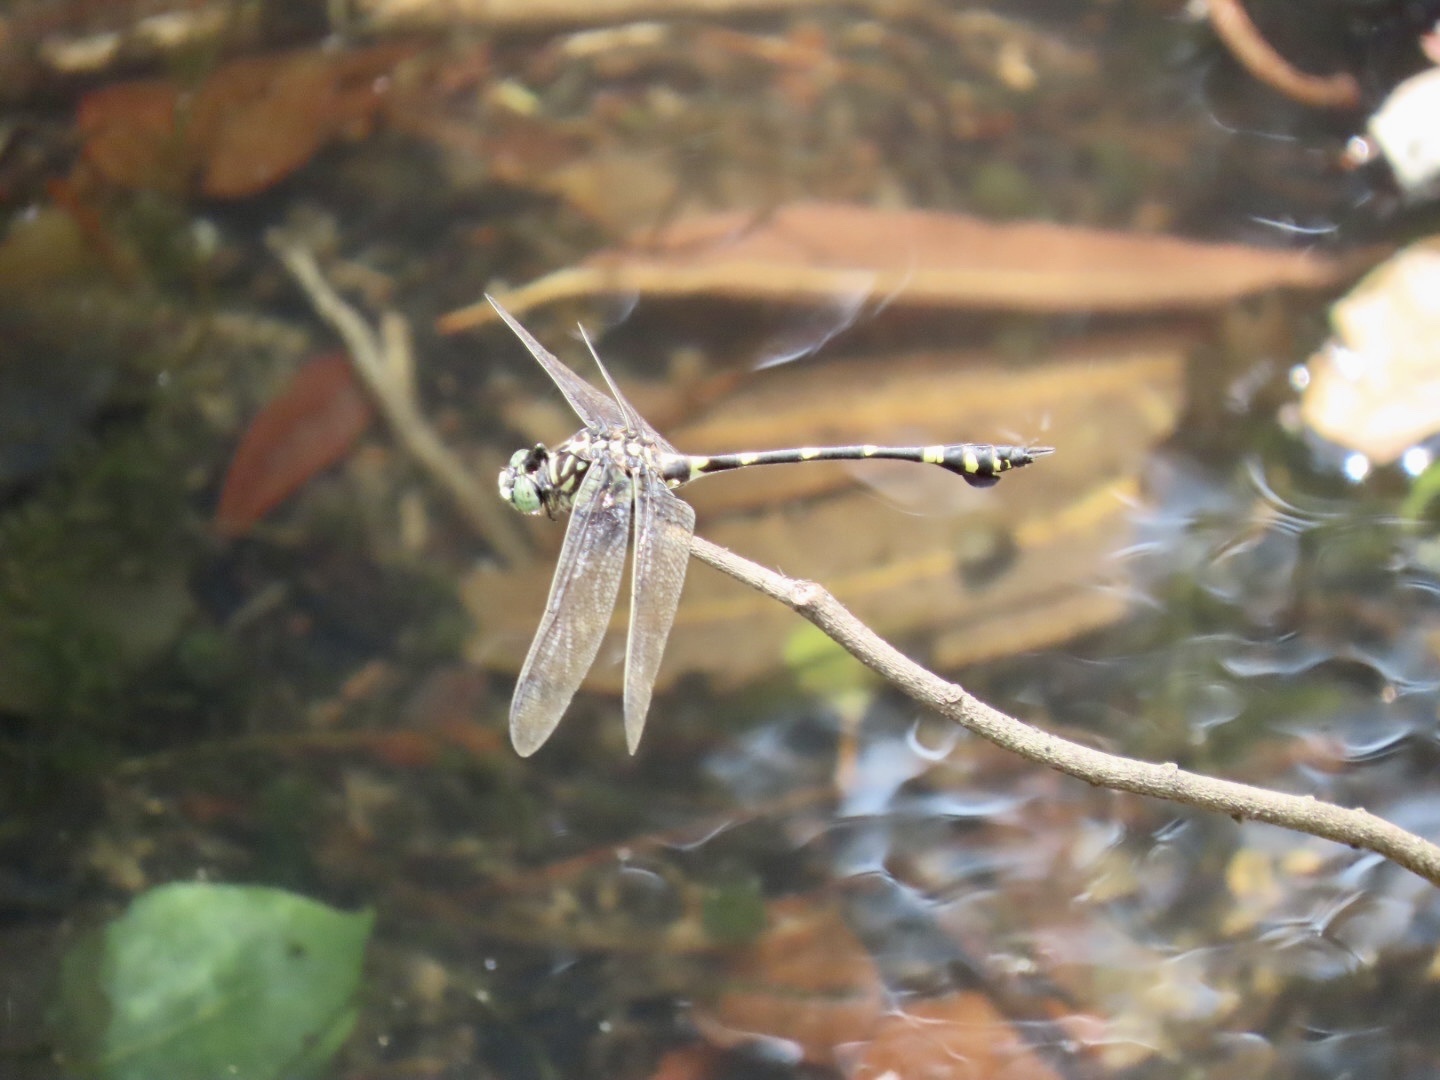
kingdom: Animalia
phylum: Arthropoda
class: Insecta
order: Odonata
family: Gomphidae
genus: Ictinogomphus
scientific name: Ictinogomphus pertinax
